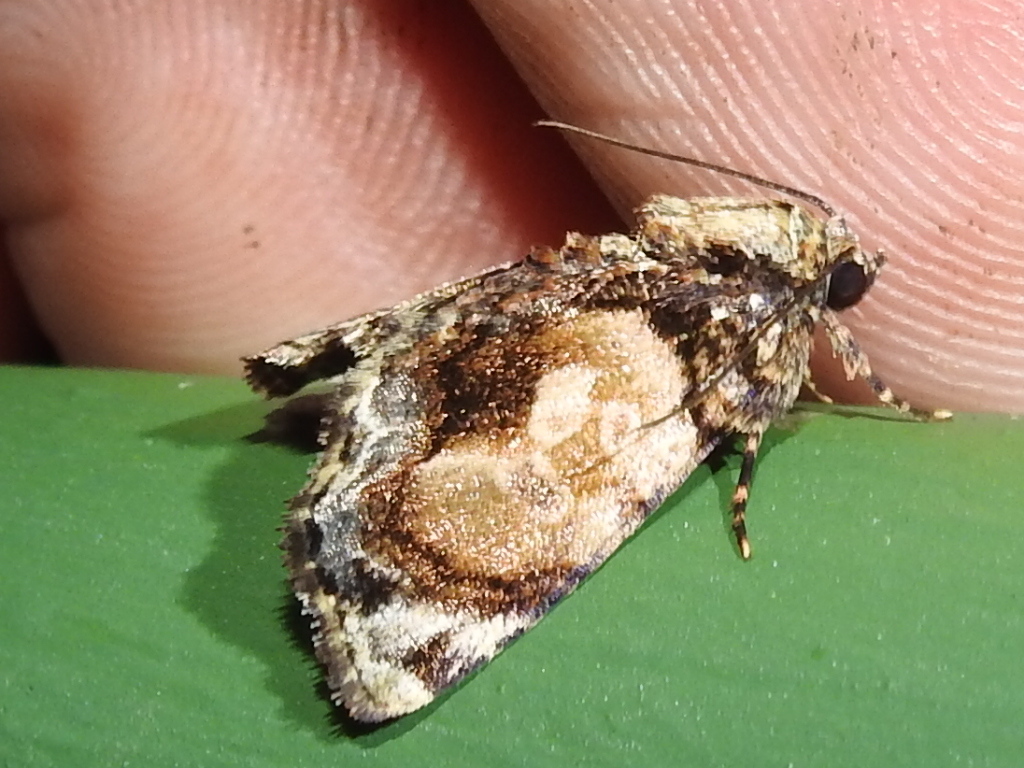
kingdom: Animalia
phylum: Arthropoda
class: Insecta
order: Lepidoptera
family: Noctuidae
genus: Parangitia
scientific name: Parangitia circumcincta
